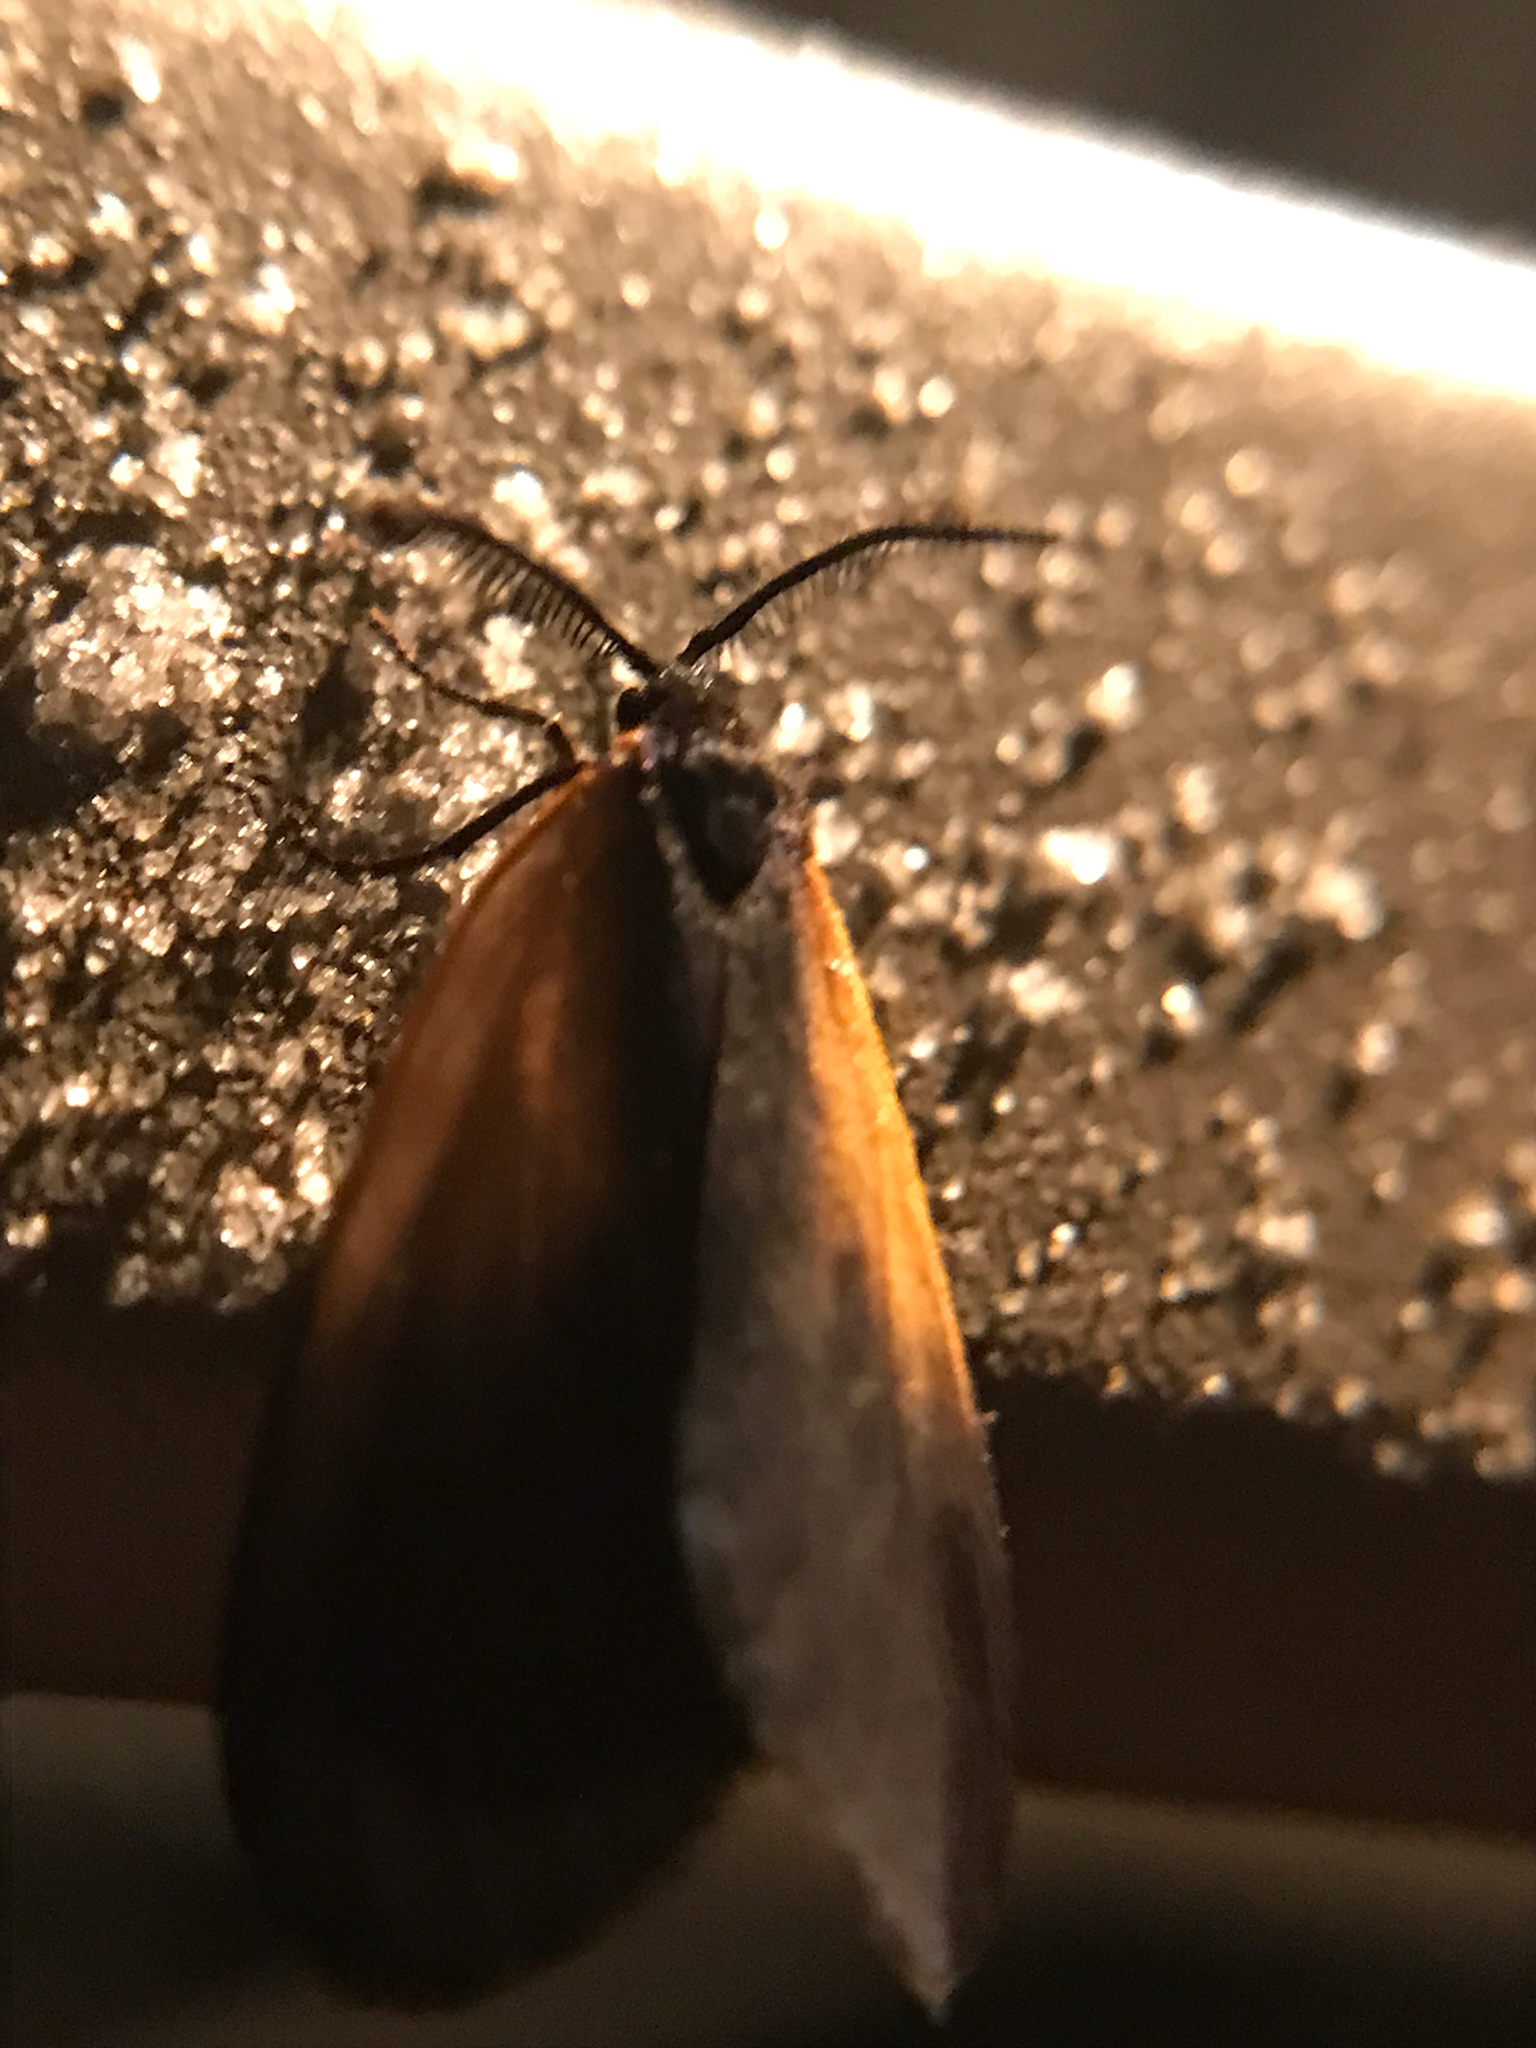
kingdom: Animalia
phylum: Arthropoda
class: Insecta
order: Lepidoptera
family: Zygaenidae
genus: Malthaca
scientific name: Malthaca dimidiata
